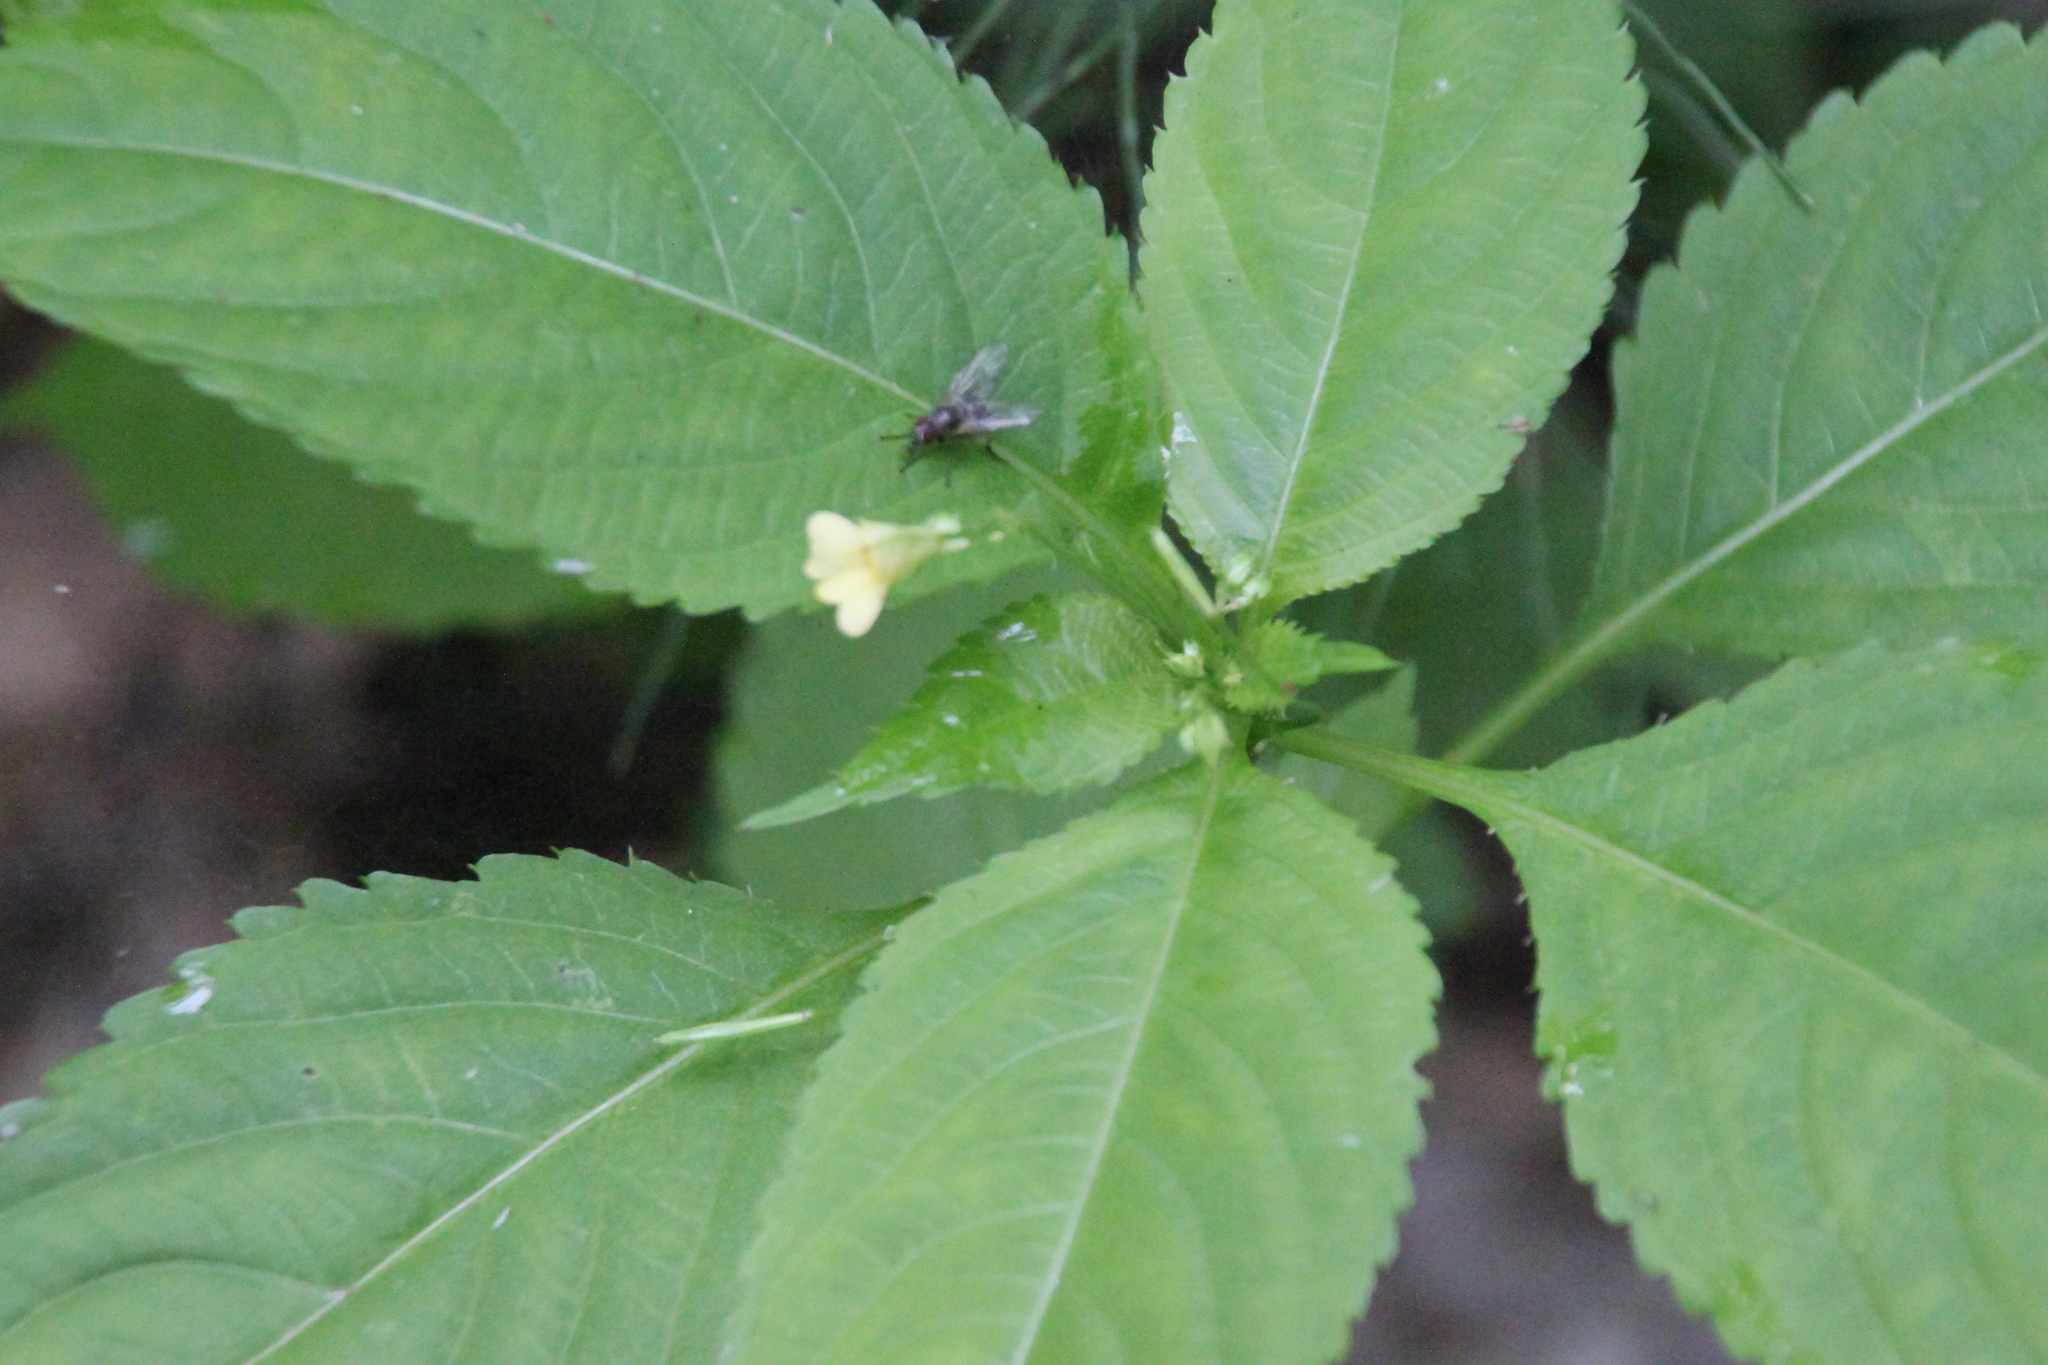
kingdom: Plantae
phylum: Tracheophyta
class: Magnoliopsida
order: Ericales
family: Balsaminaceae
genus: Impatiens
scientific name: Impatiens parviflora
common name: Small balsam
